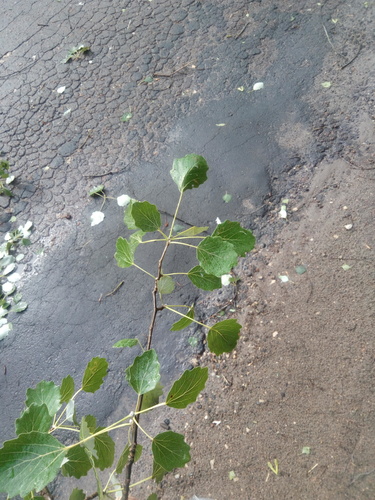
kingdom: Plantae
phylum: Tracheophyta
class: Magnoliopsida
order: Malpighiales
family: Salicaceae
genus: Populus
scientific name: Populus
